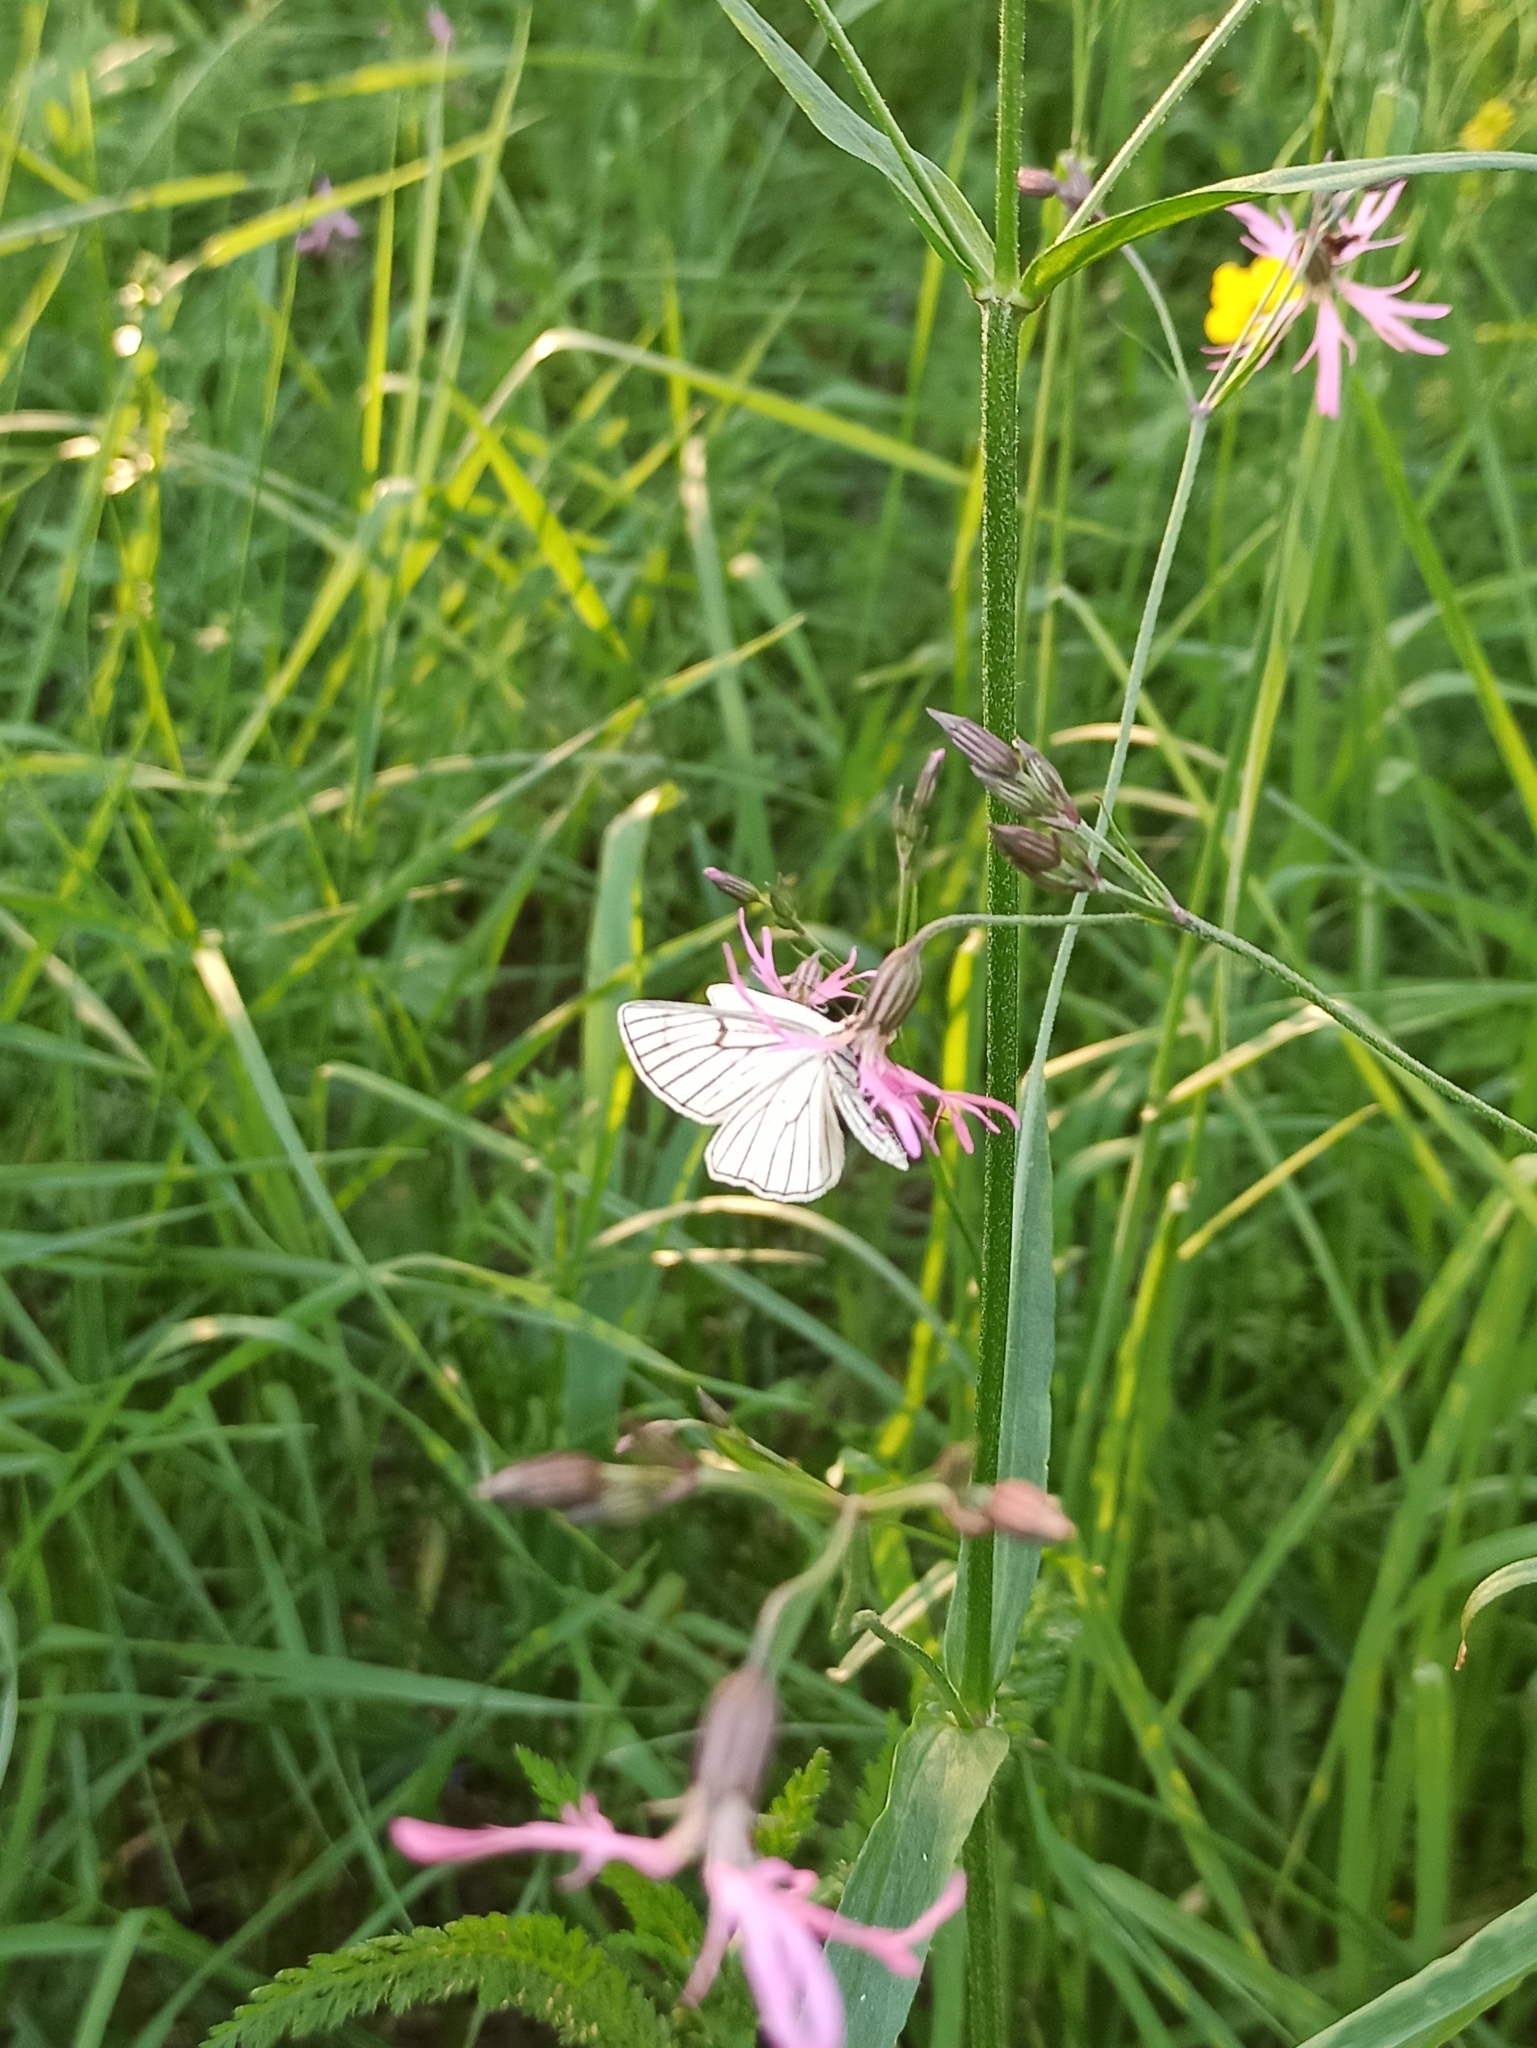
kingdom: Animalia
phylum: Arthropoda
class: Insecta
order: Lepidoptera
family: Geometridae
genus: Siona
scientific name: Siona lineata
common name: Black-veined moth
